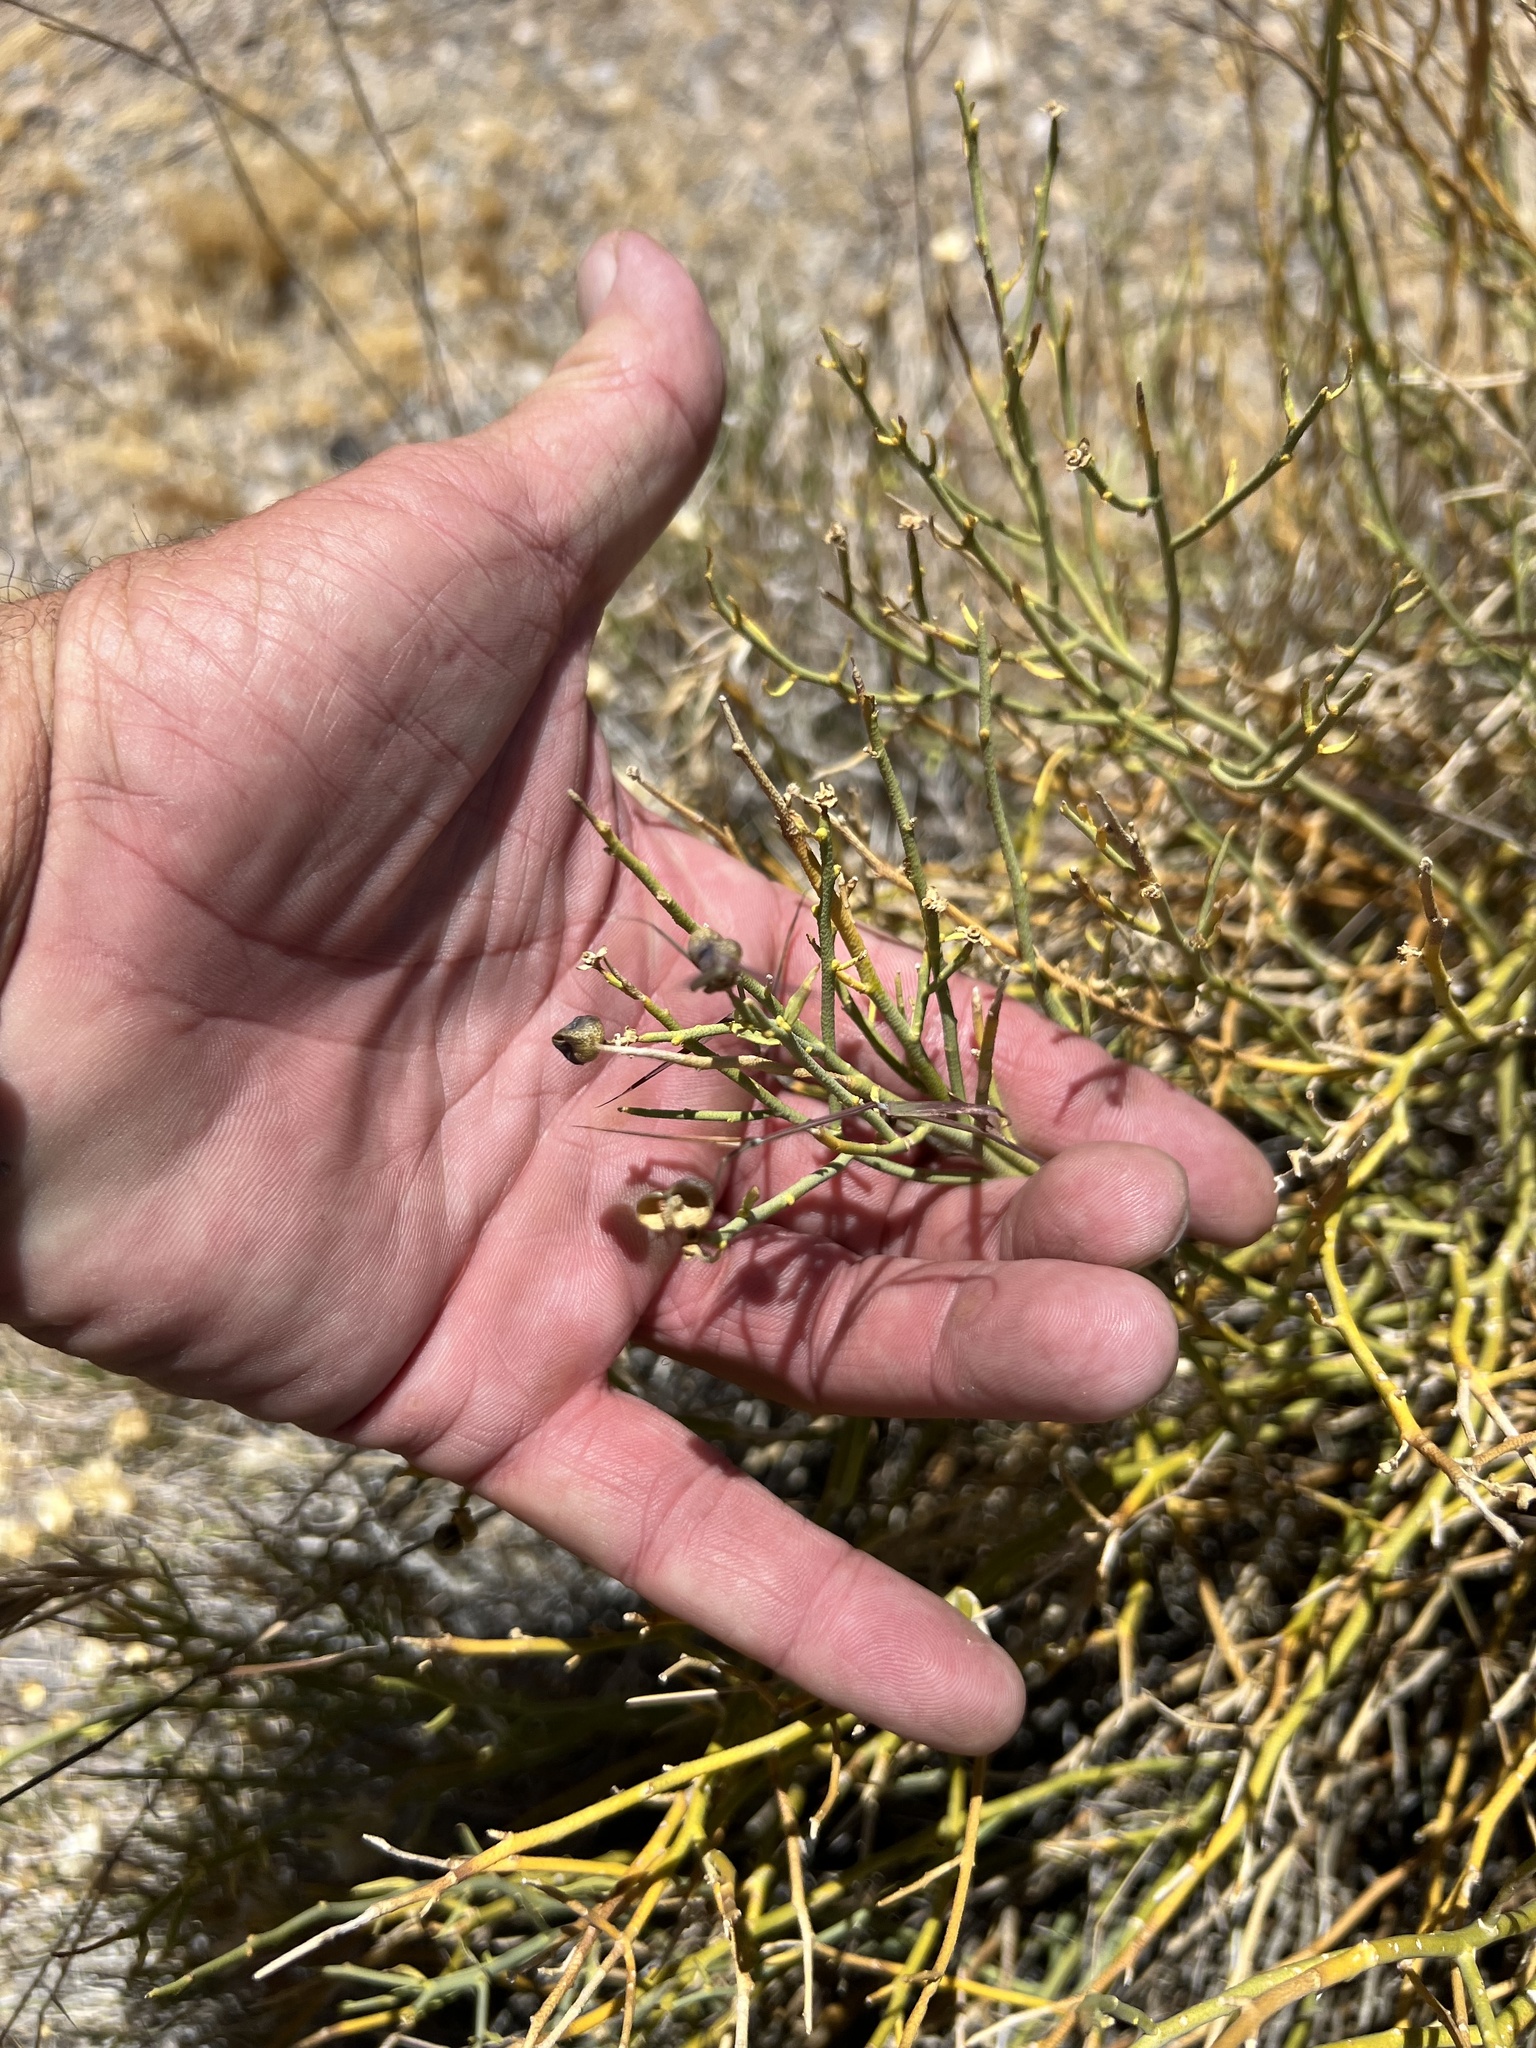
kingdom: Plantae
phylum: Tracheophyta
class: Magnoliopsida
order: Sapindales
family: Rutaceae
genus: Thamnosma
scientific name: Thamnosma montana
